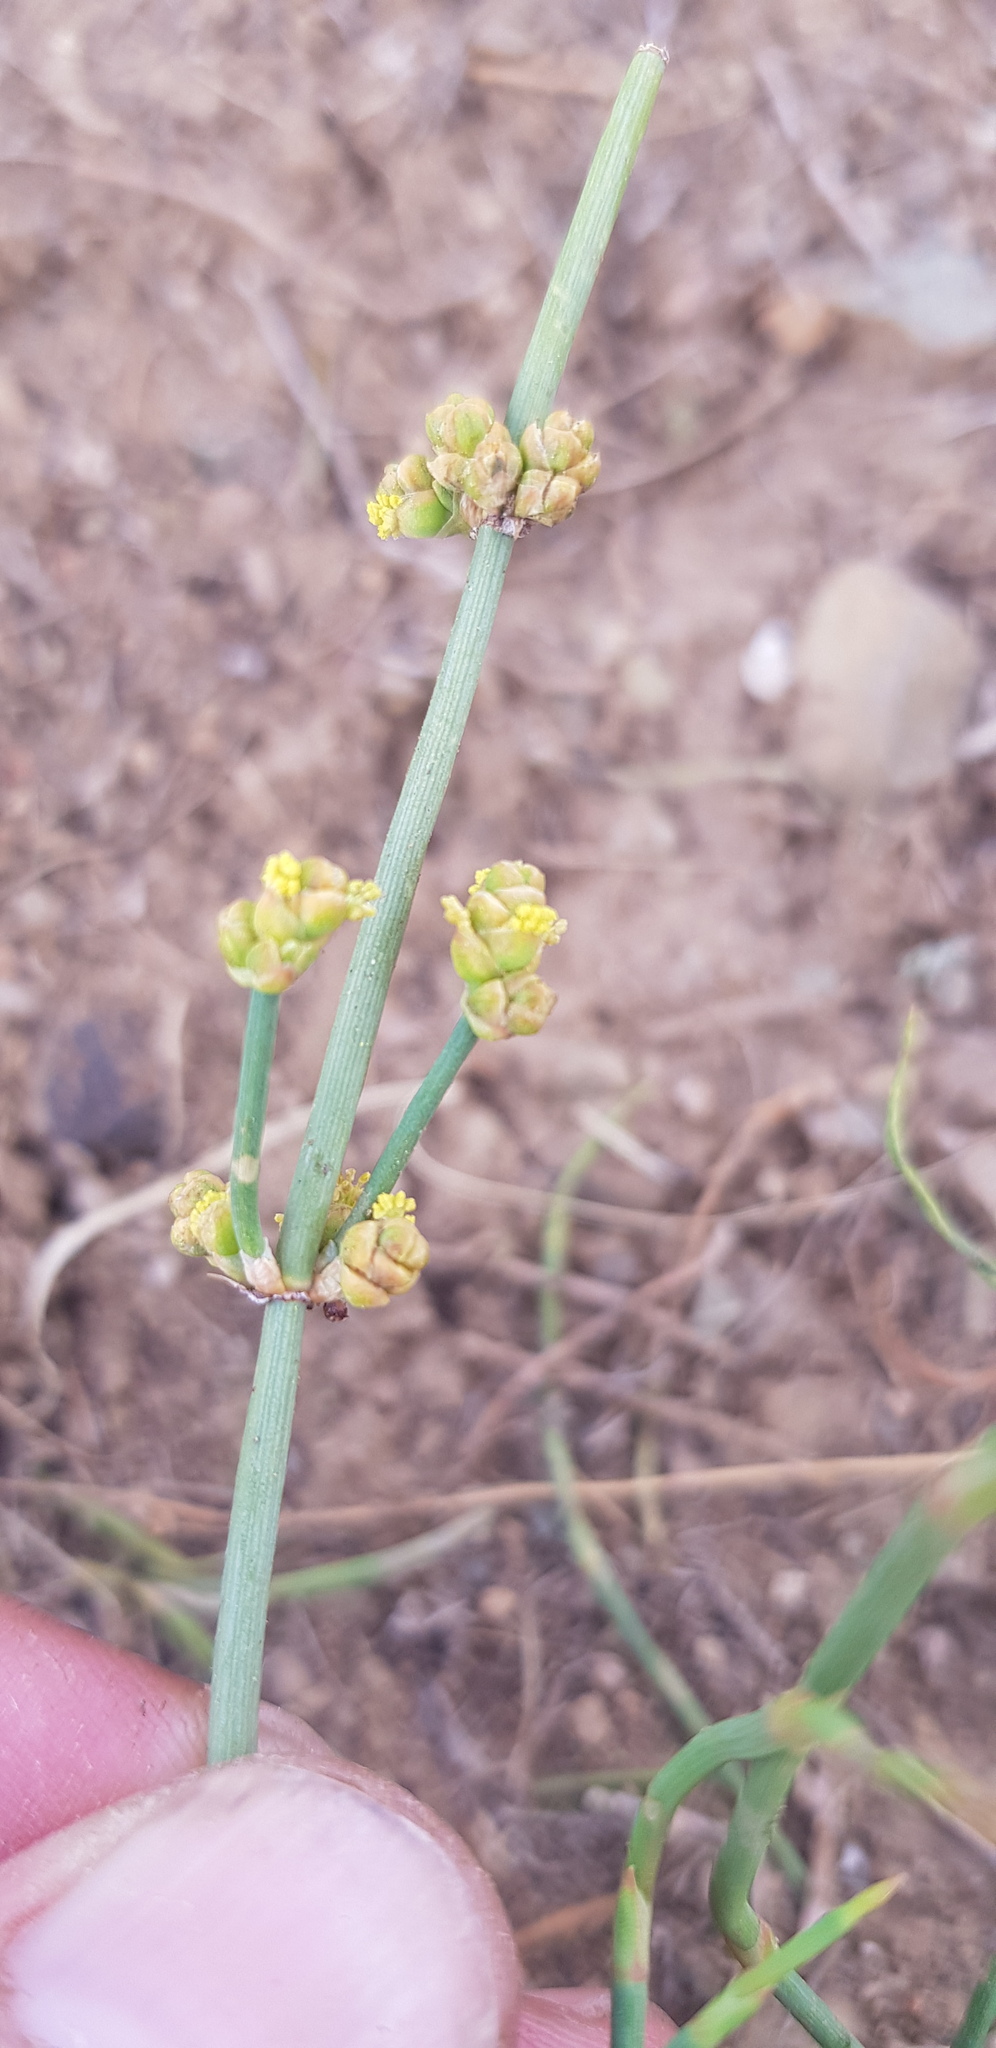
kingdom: Plantae
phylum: Tracheophyta
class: Gnetopsida
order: Ephedrales
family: Ephedraceae
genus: Ephedra
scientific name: Ephedra monosperma
